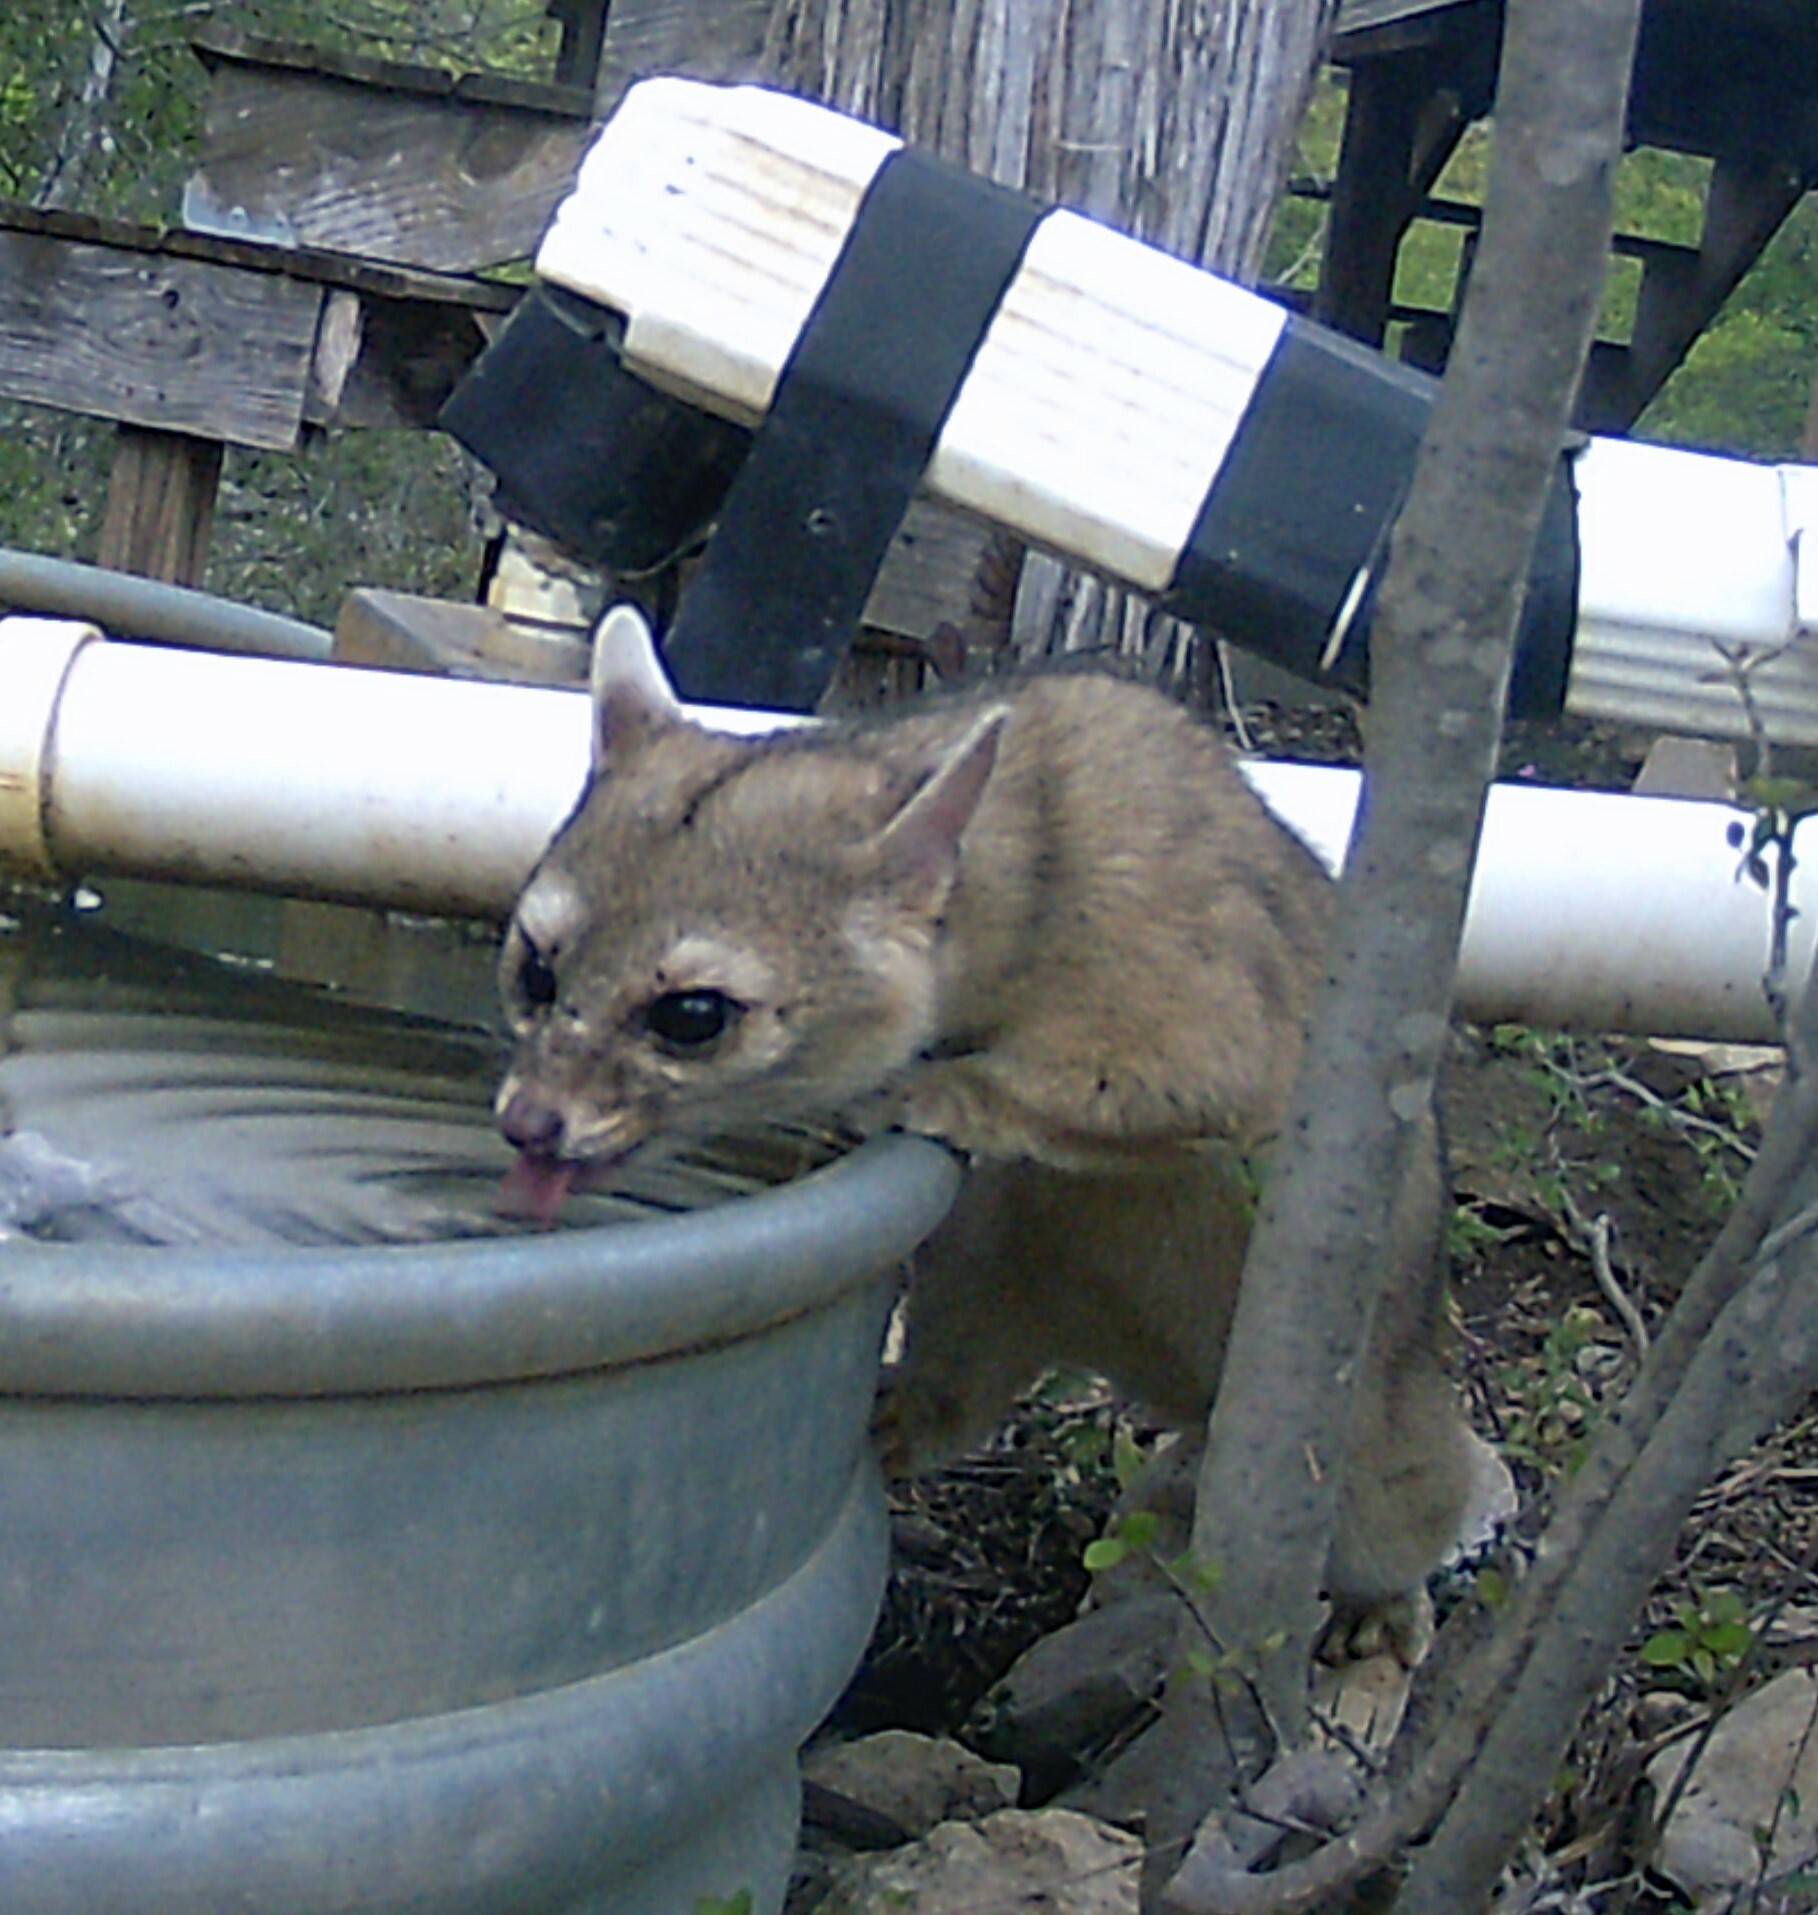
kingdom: Animalia
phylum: Chordata
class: Mammalia
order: Carnivora
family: Procyonidae
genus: Bassariscus
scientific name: Bassariscus astutus
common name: Ringtail
